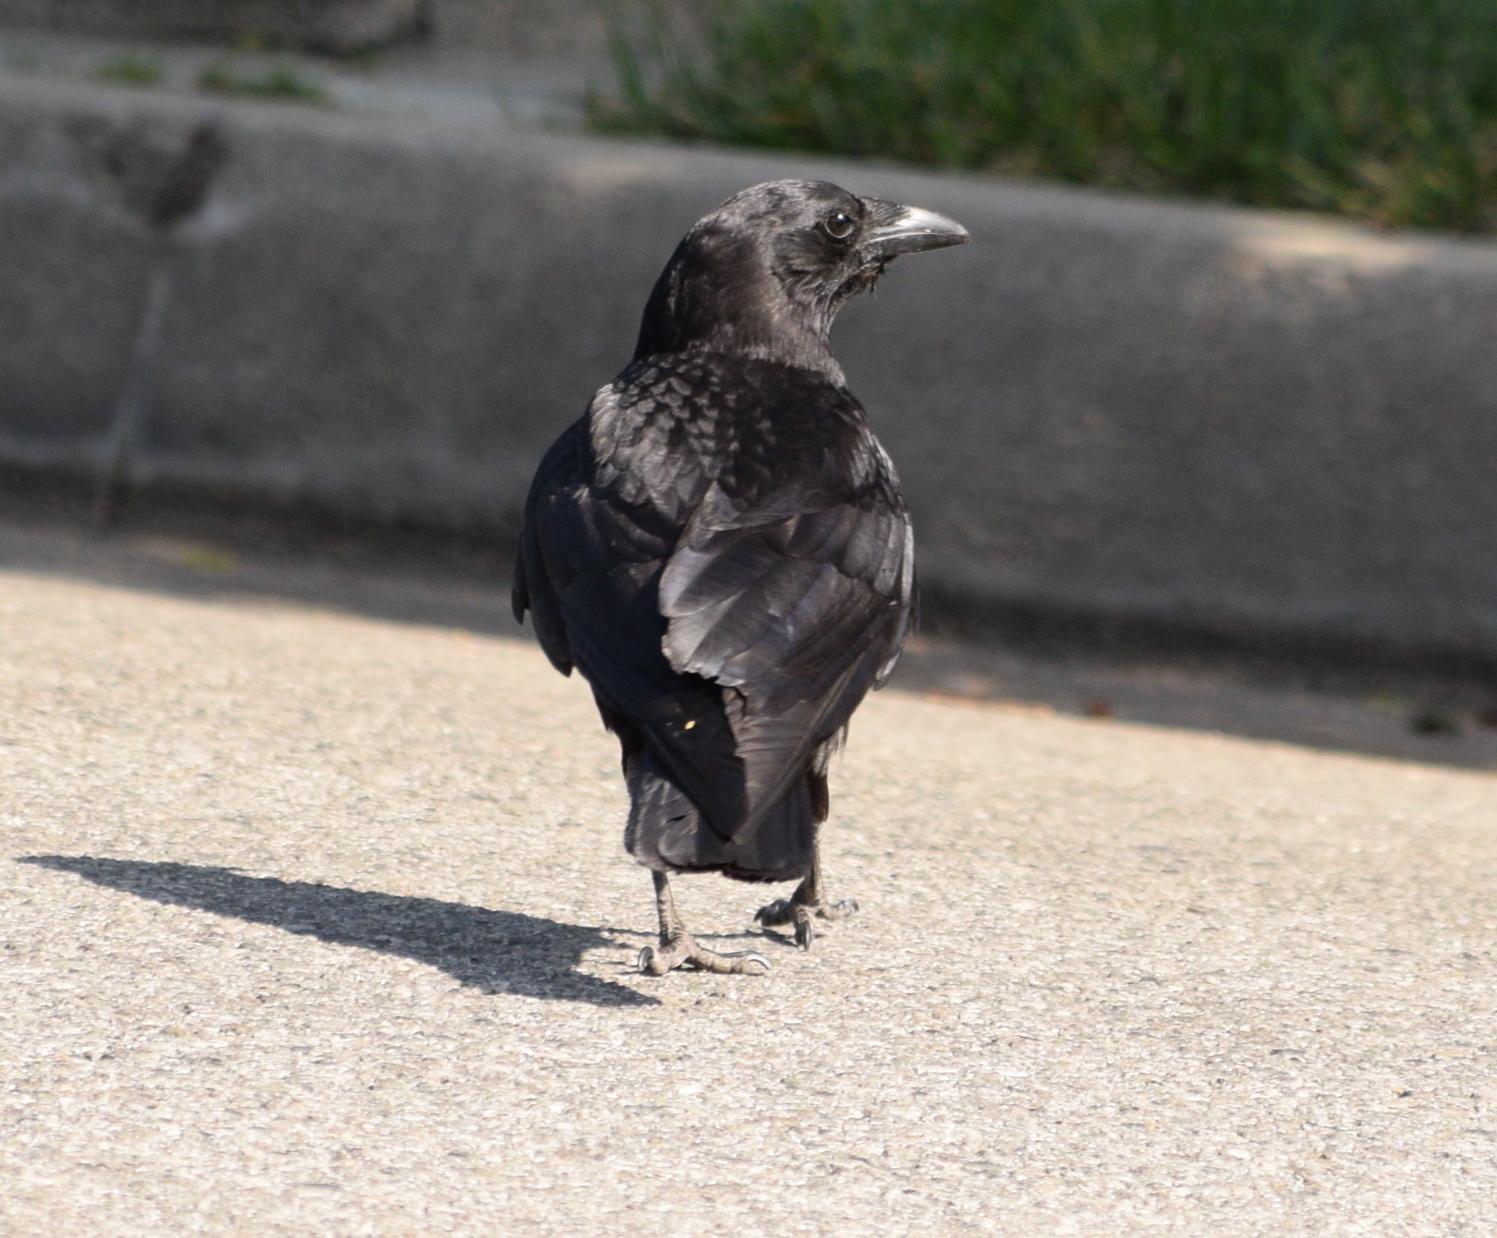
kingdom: Animalia
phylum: Chordata
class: Aves
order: Passeriformes
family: Corvidae
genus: Corvus
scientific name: Corvus brachyrhynchos
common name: American crow
